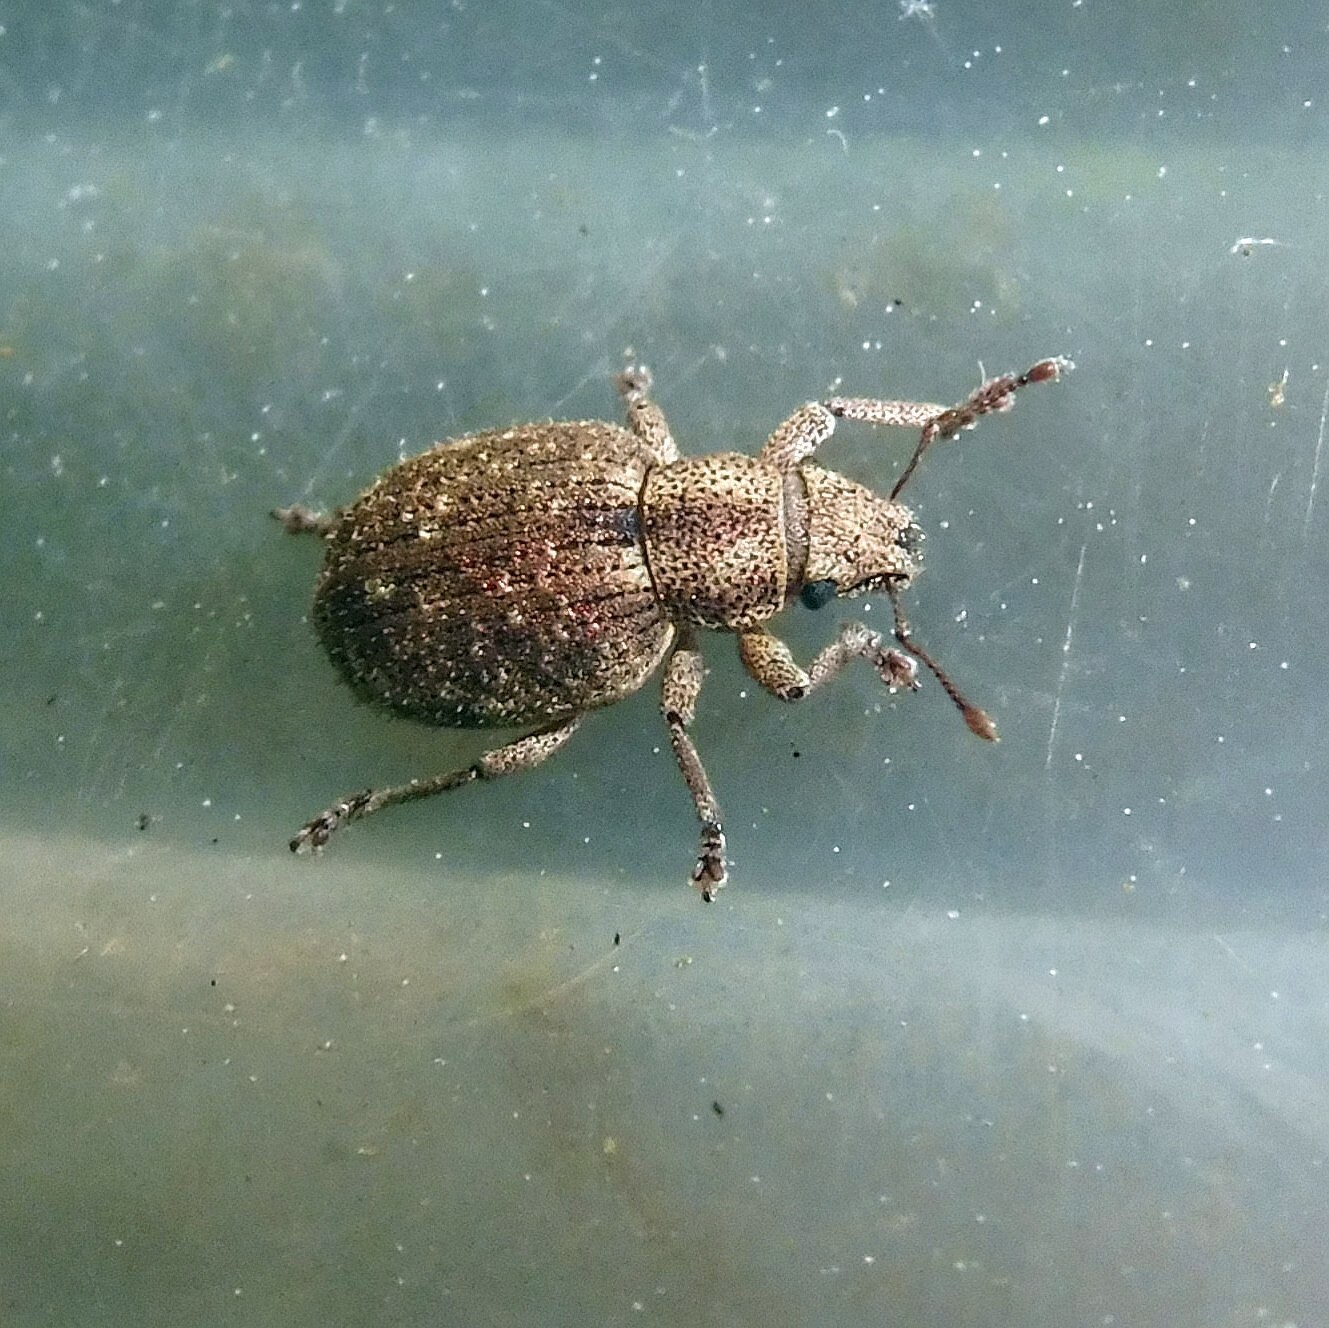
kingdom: Animalia
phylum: Arthropoda
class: Insecta
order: Coleoptera
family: Curculionidae
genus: Strophosoma
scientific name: Strophosoma capitatum
